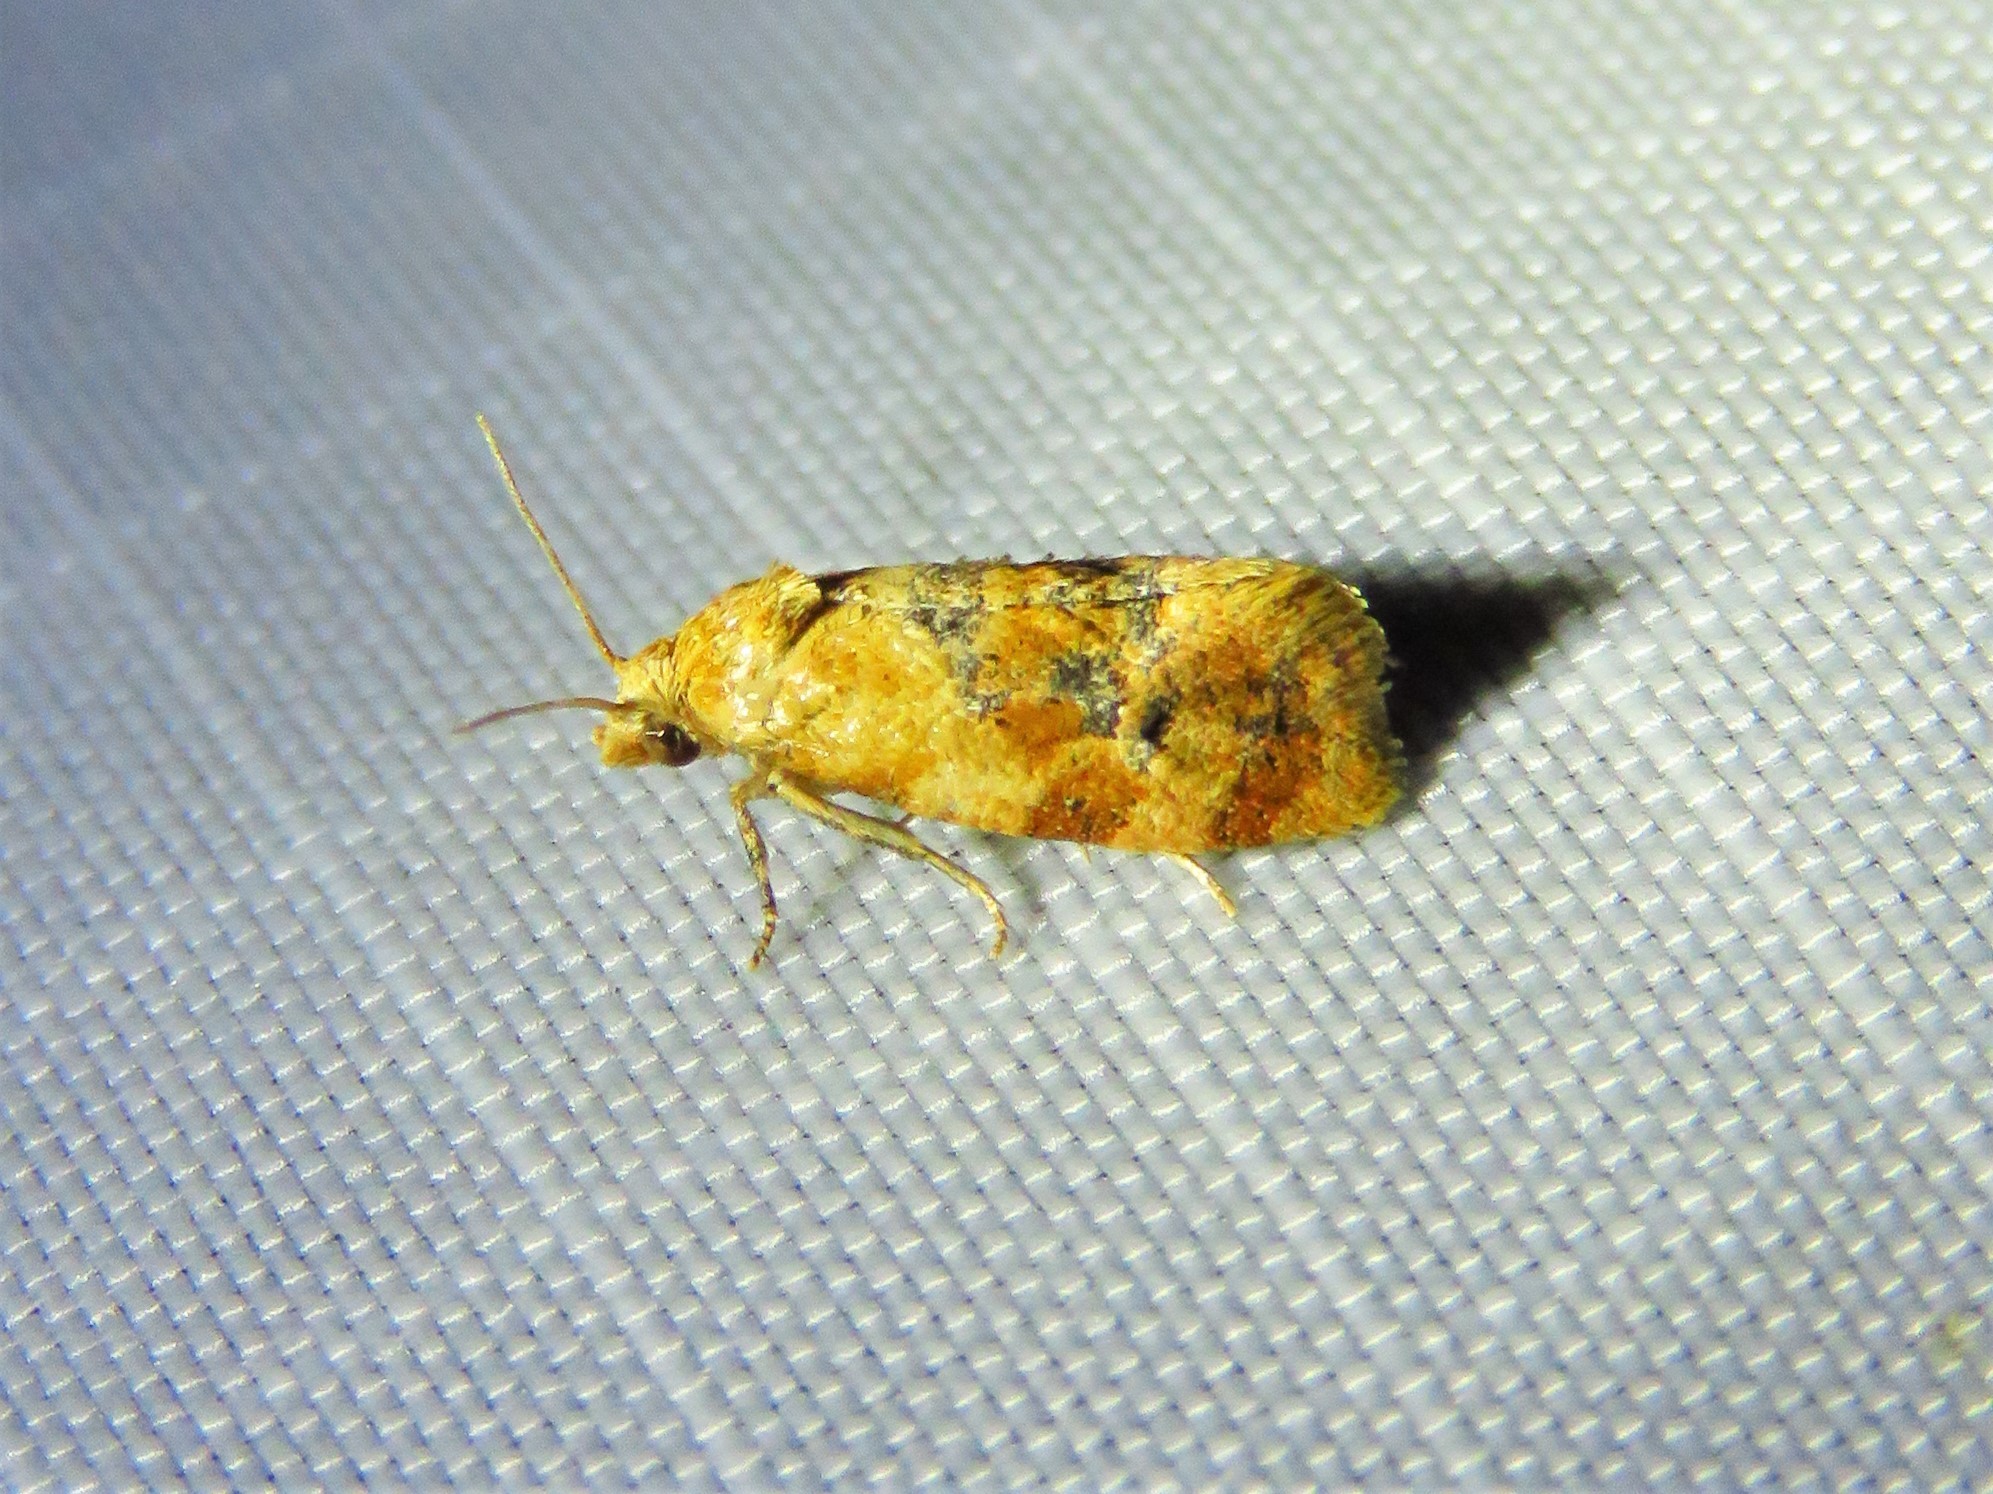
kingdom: Animalia
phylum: Arthropoda
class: Insecta
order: Lepidoptera
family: Tortricidae
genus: Cochylis
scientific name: Cochylis bucera
